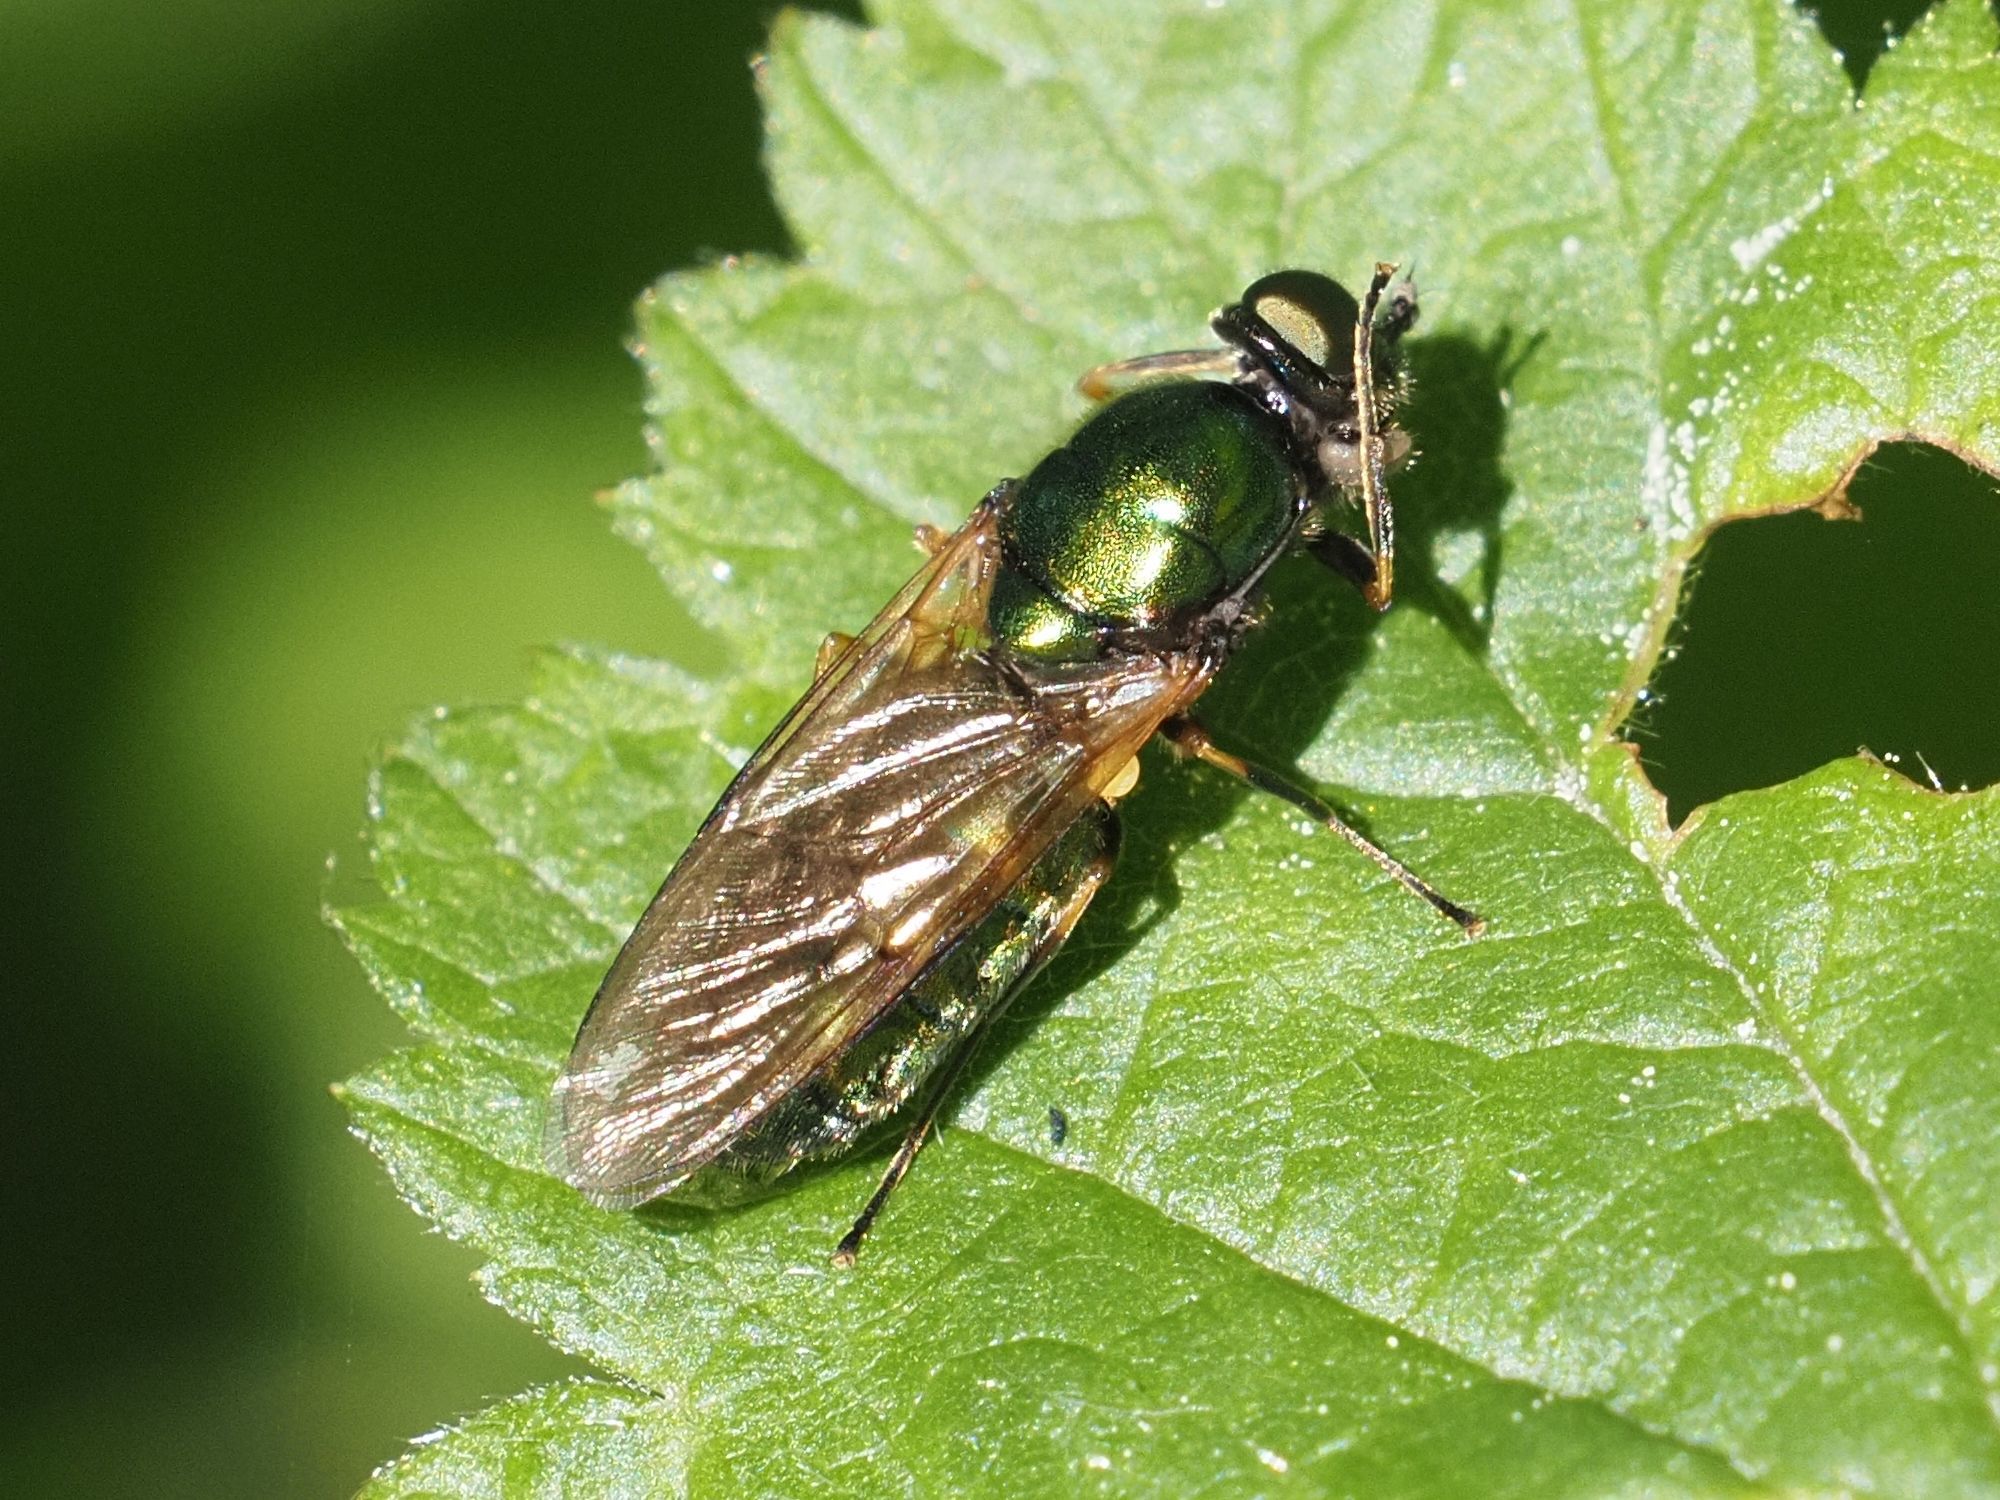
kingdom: Animalia
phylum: Arthropoda
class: Insecta
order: Diptera
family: Stratiomyidae
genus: Chloromyia
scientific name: Chloromyia formosa
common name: Soldier fly
